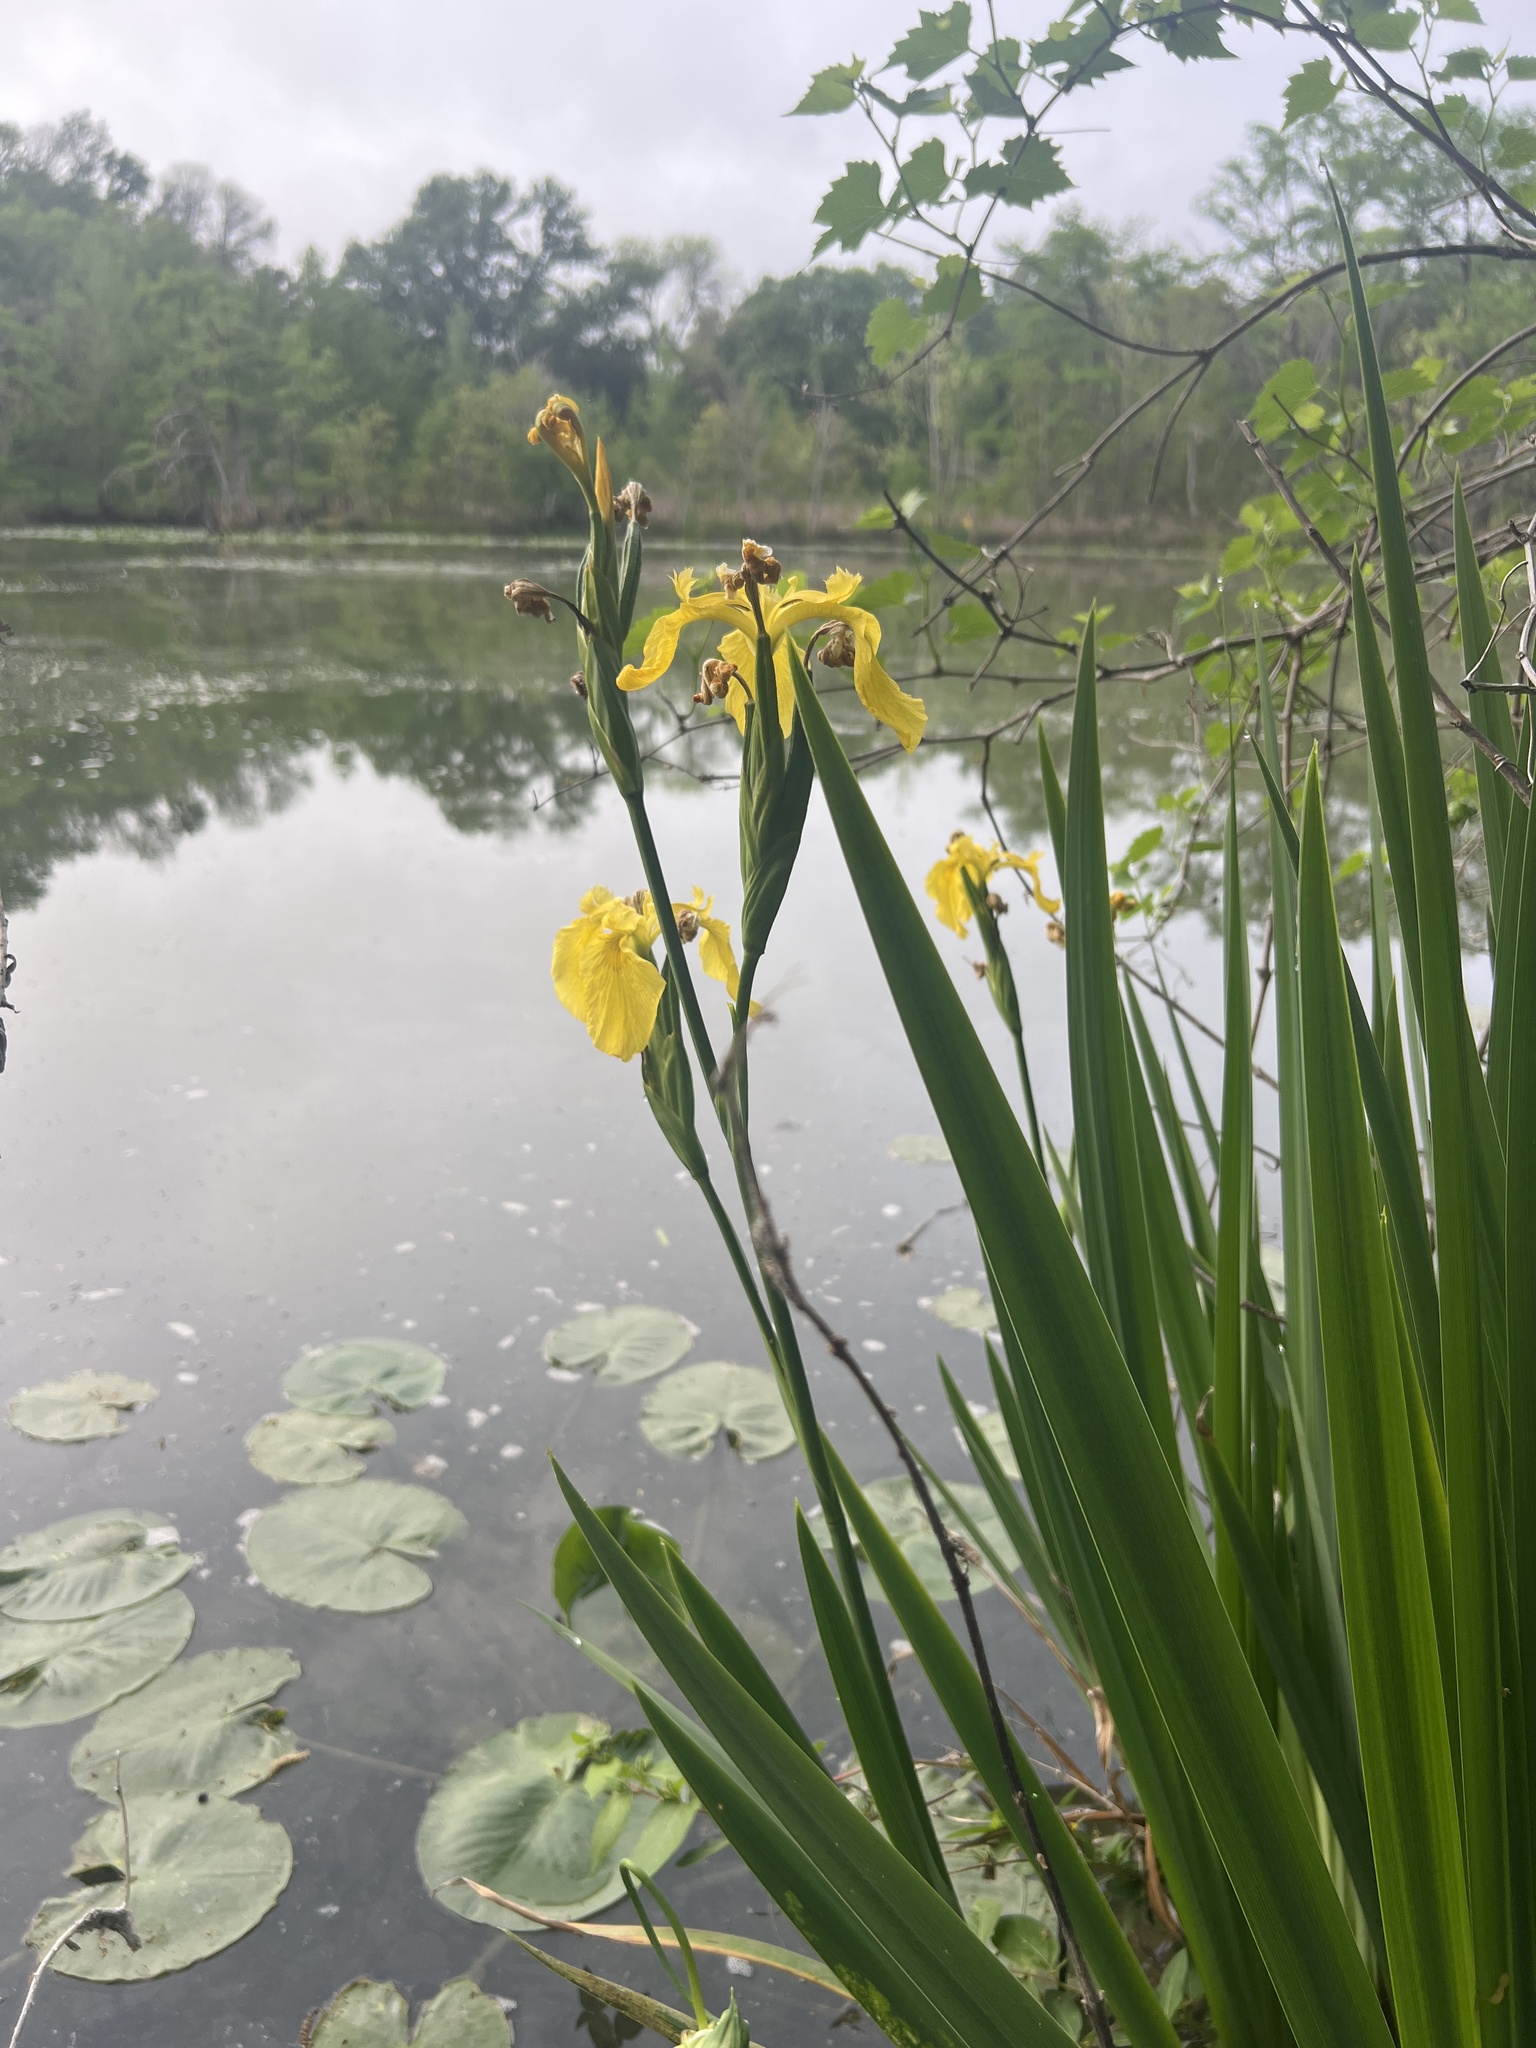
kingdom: Plantae
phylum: Tracheophyta
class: Liliopsida
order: Asparagales
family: Iridaceae
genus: Iris
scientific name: Iris pseudacorus
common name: Yellow flag
